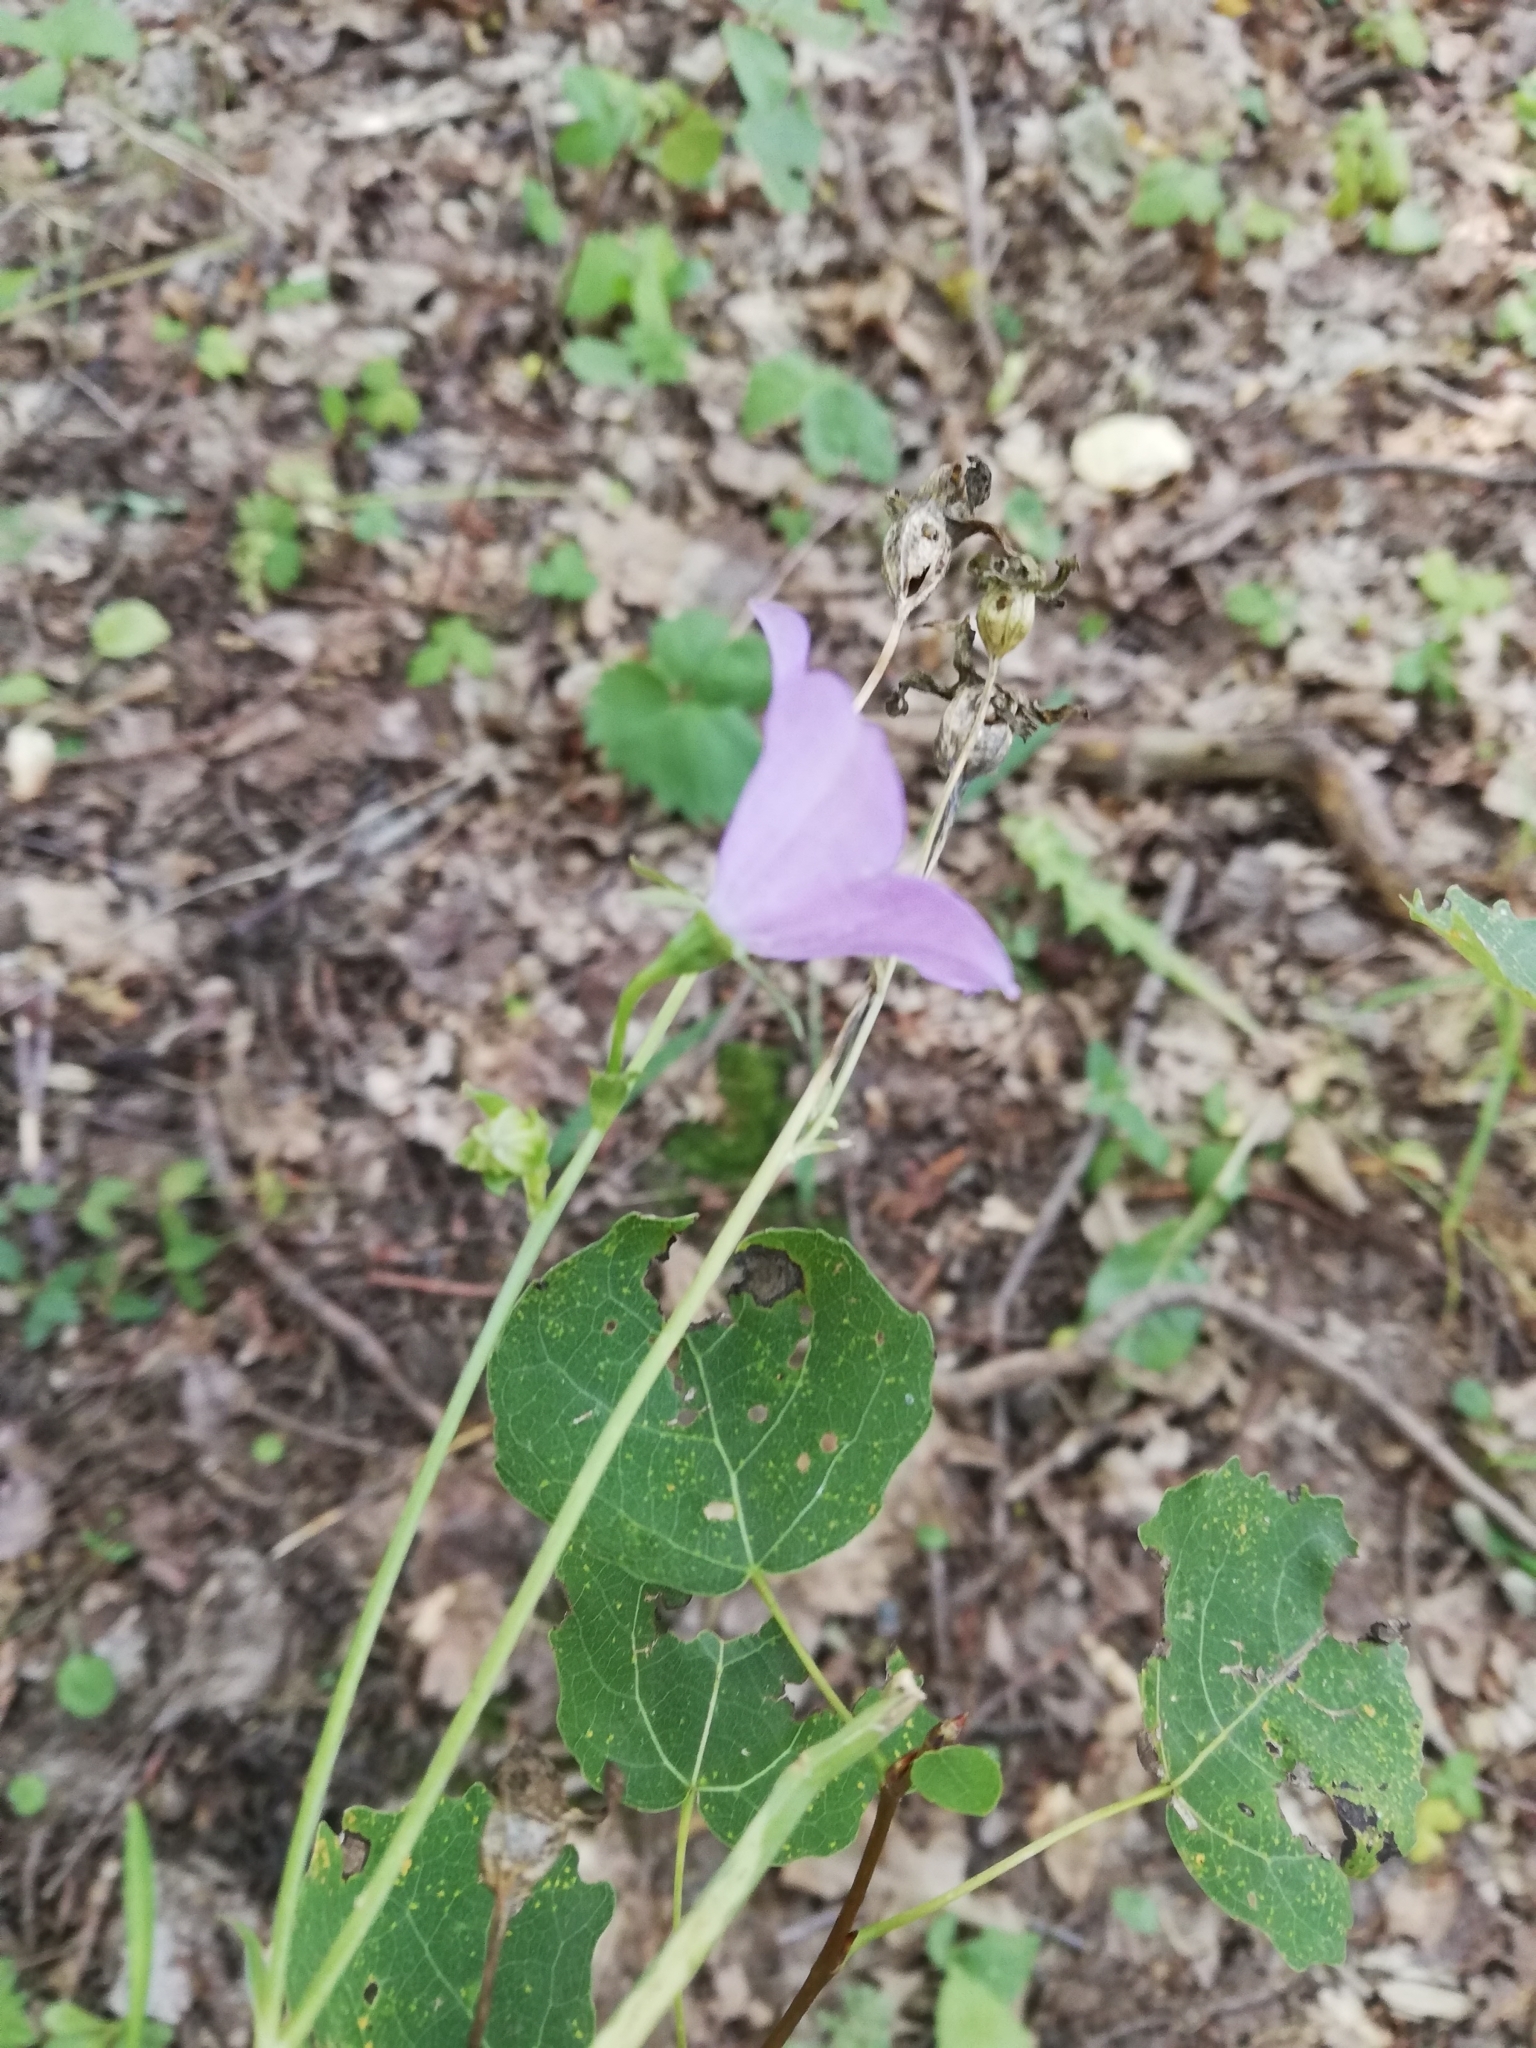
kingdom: Plantae
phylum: Tracheophyta
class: Magnoliopsida
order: Asterales
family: Campanulaceae
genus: Campanula
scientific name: Campanula persicifolia
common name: Peach-leaved bellflower
